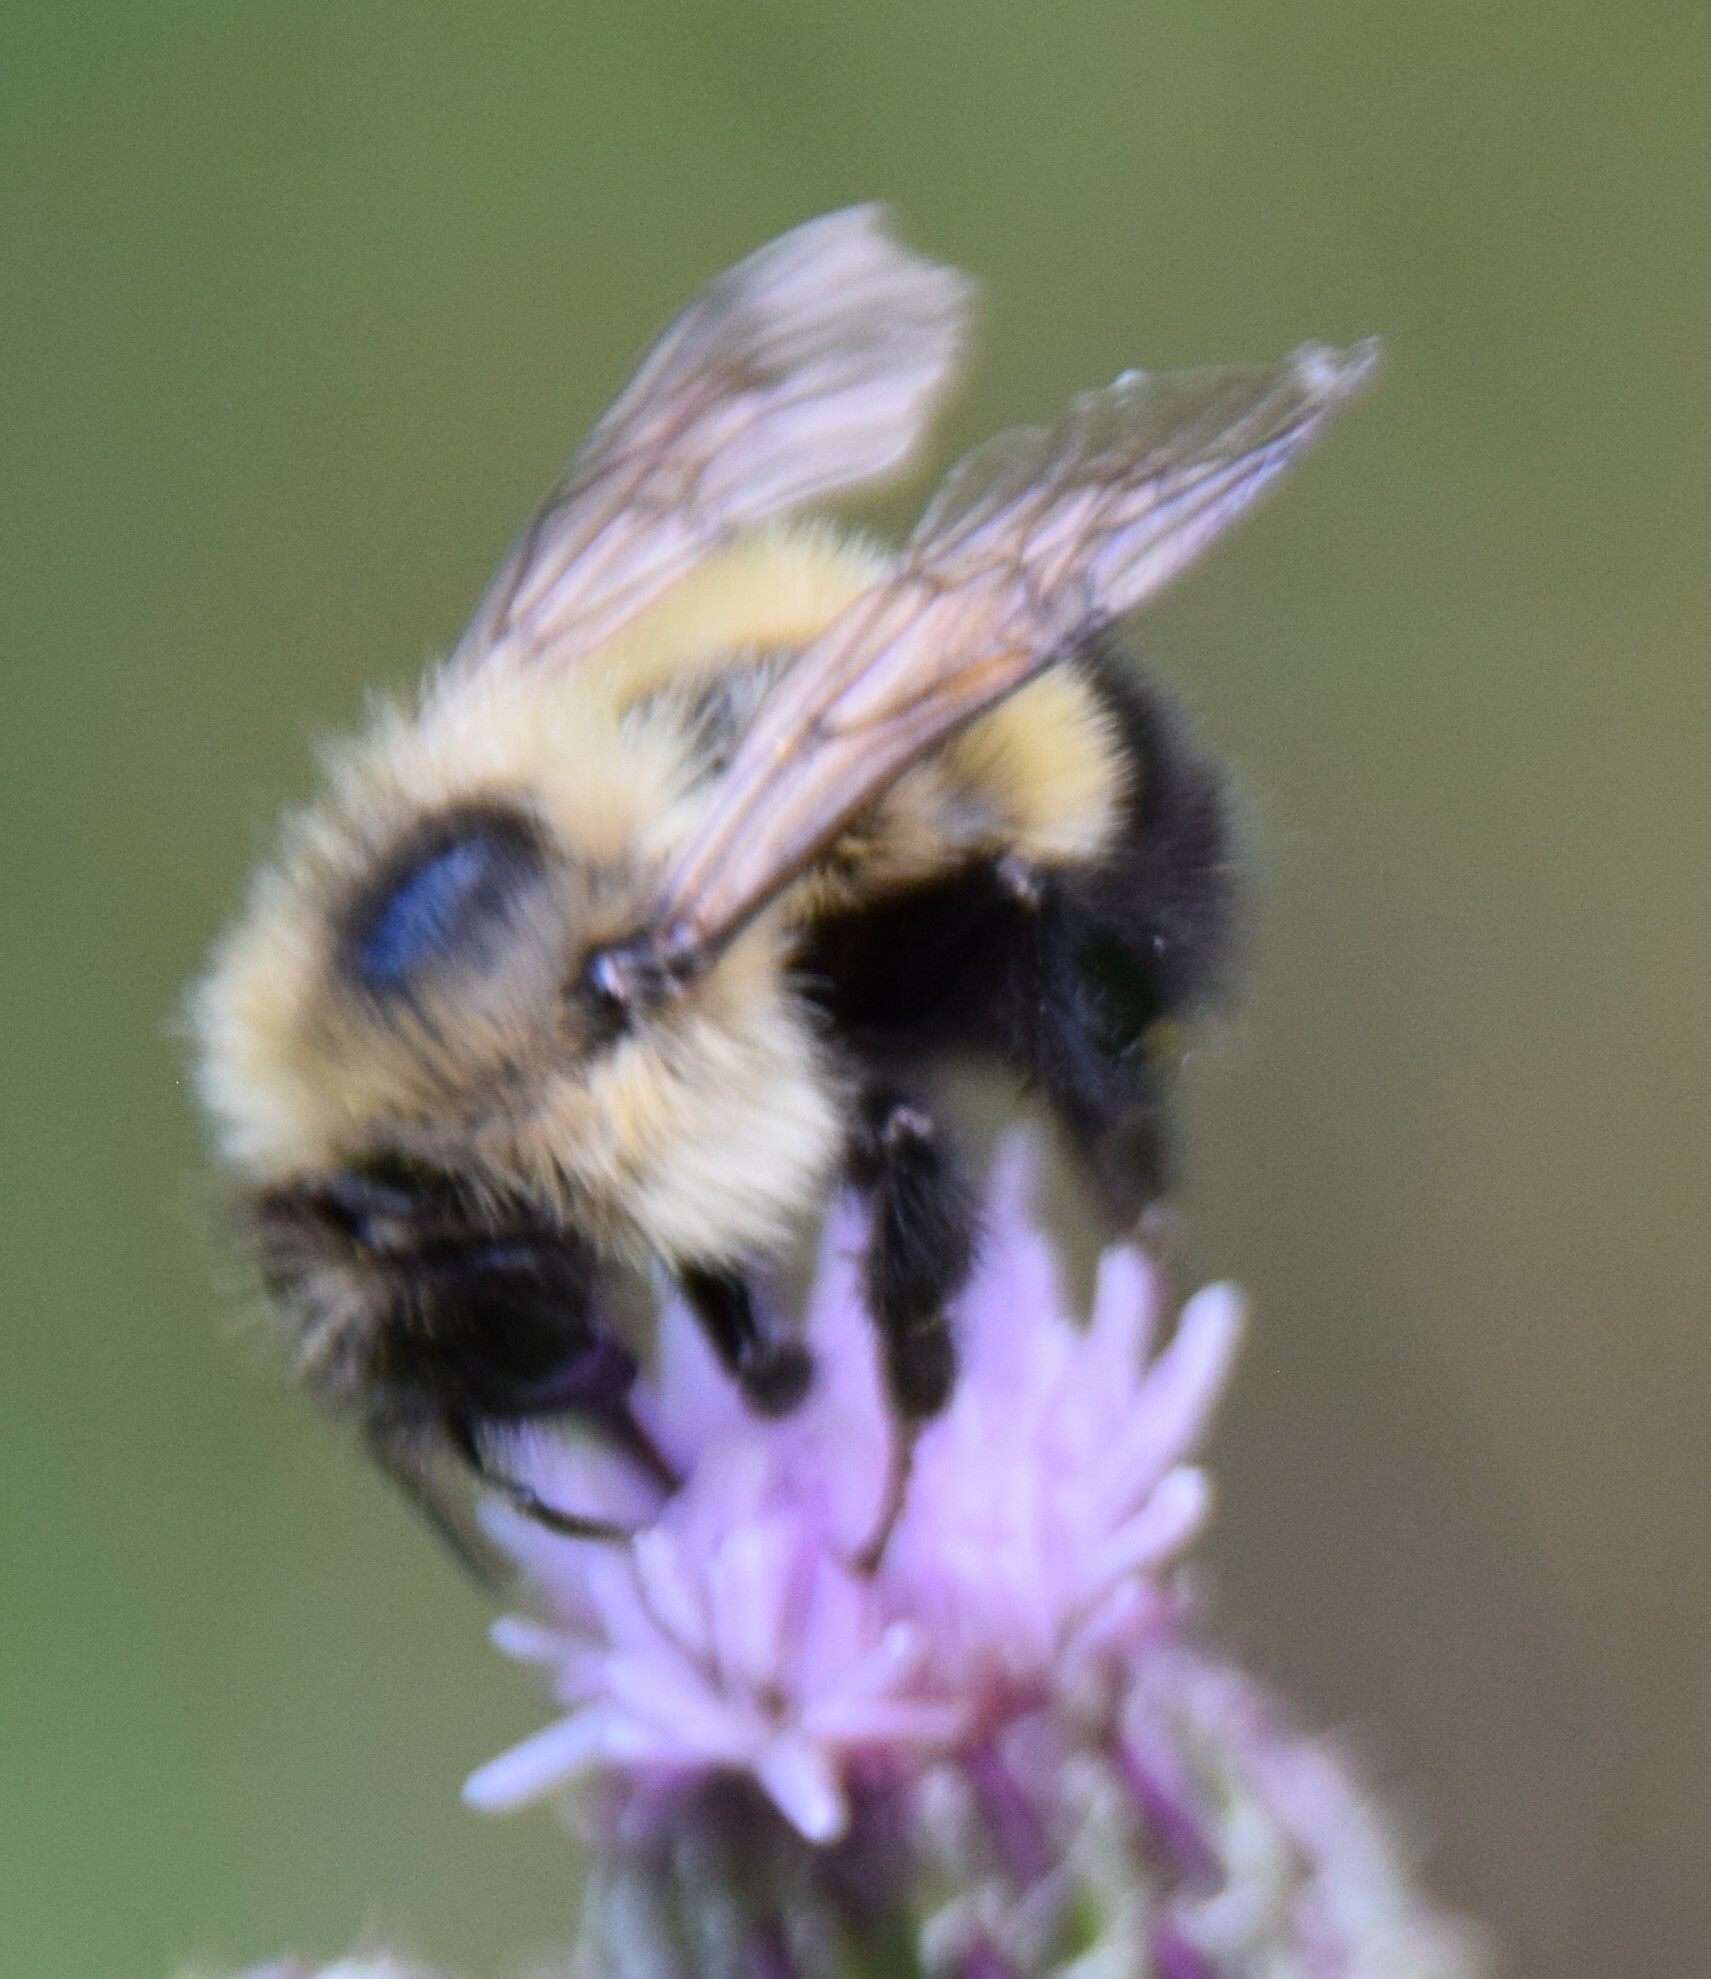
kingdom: Animalia
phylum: Arthropoda
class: Insecta
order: Hymenoptera
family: Apidae
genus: Pyrobombus
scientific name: Pyrobombus
